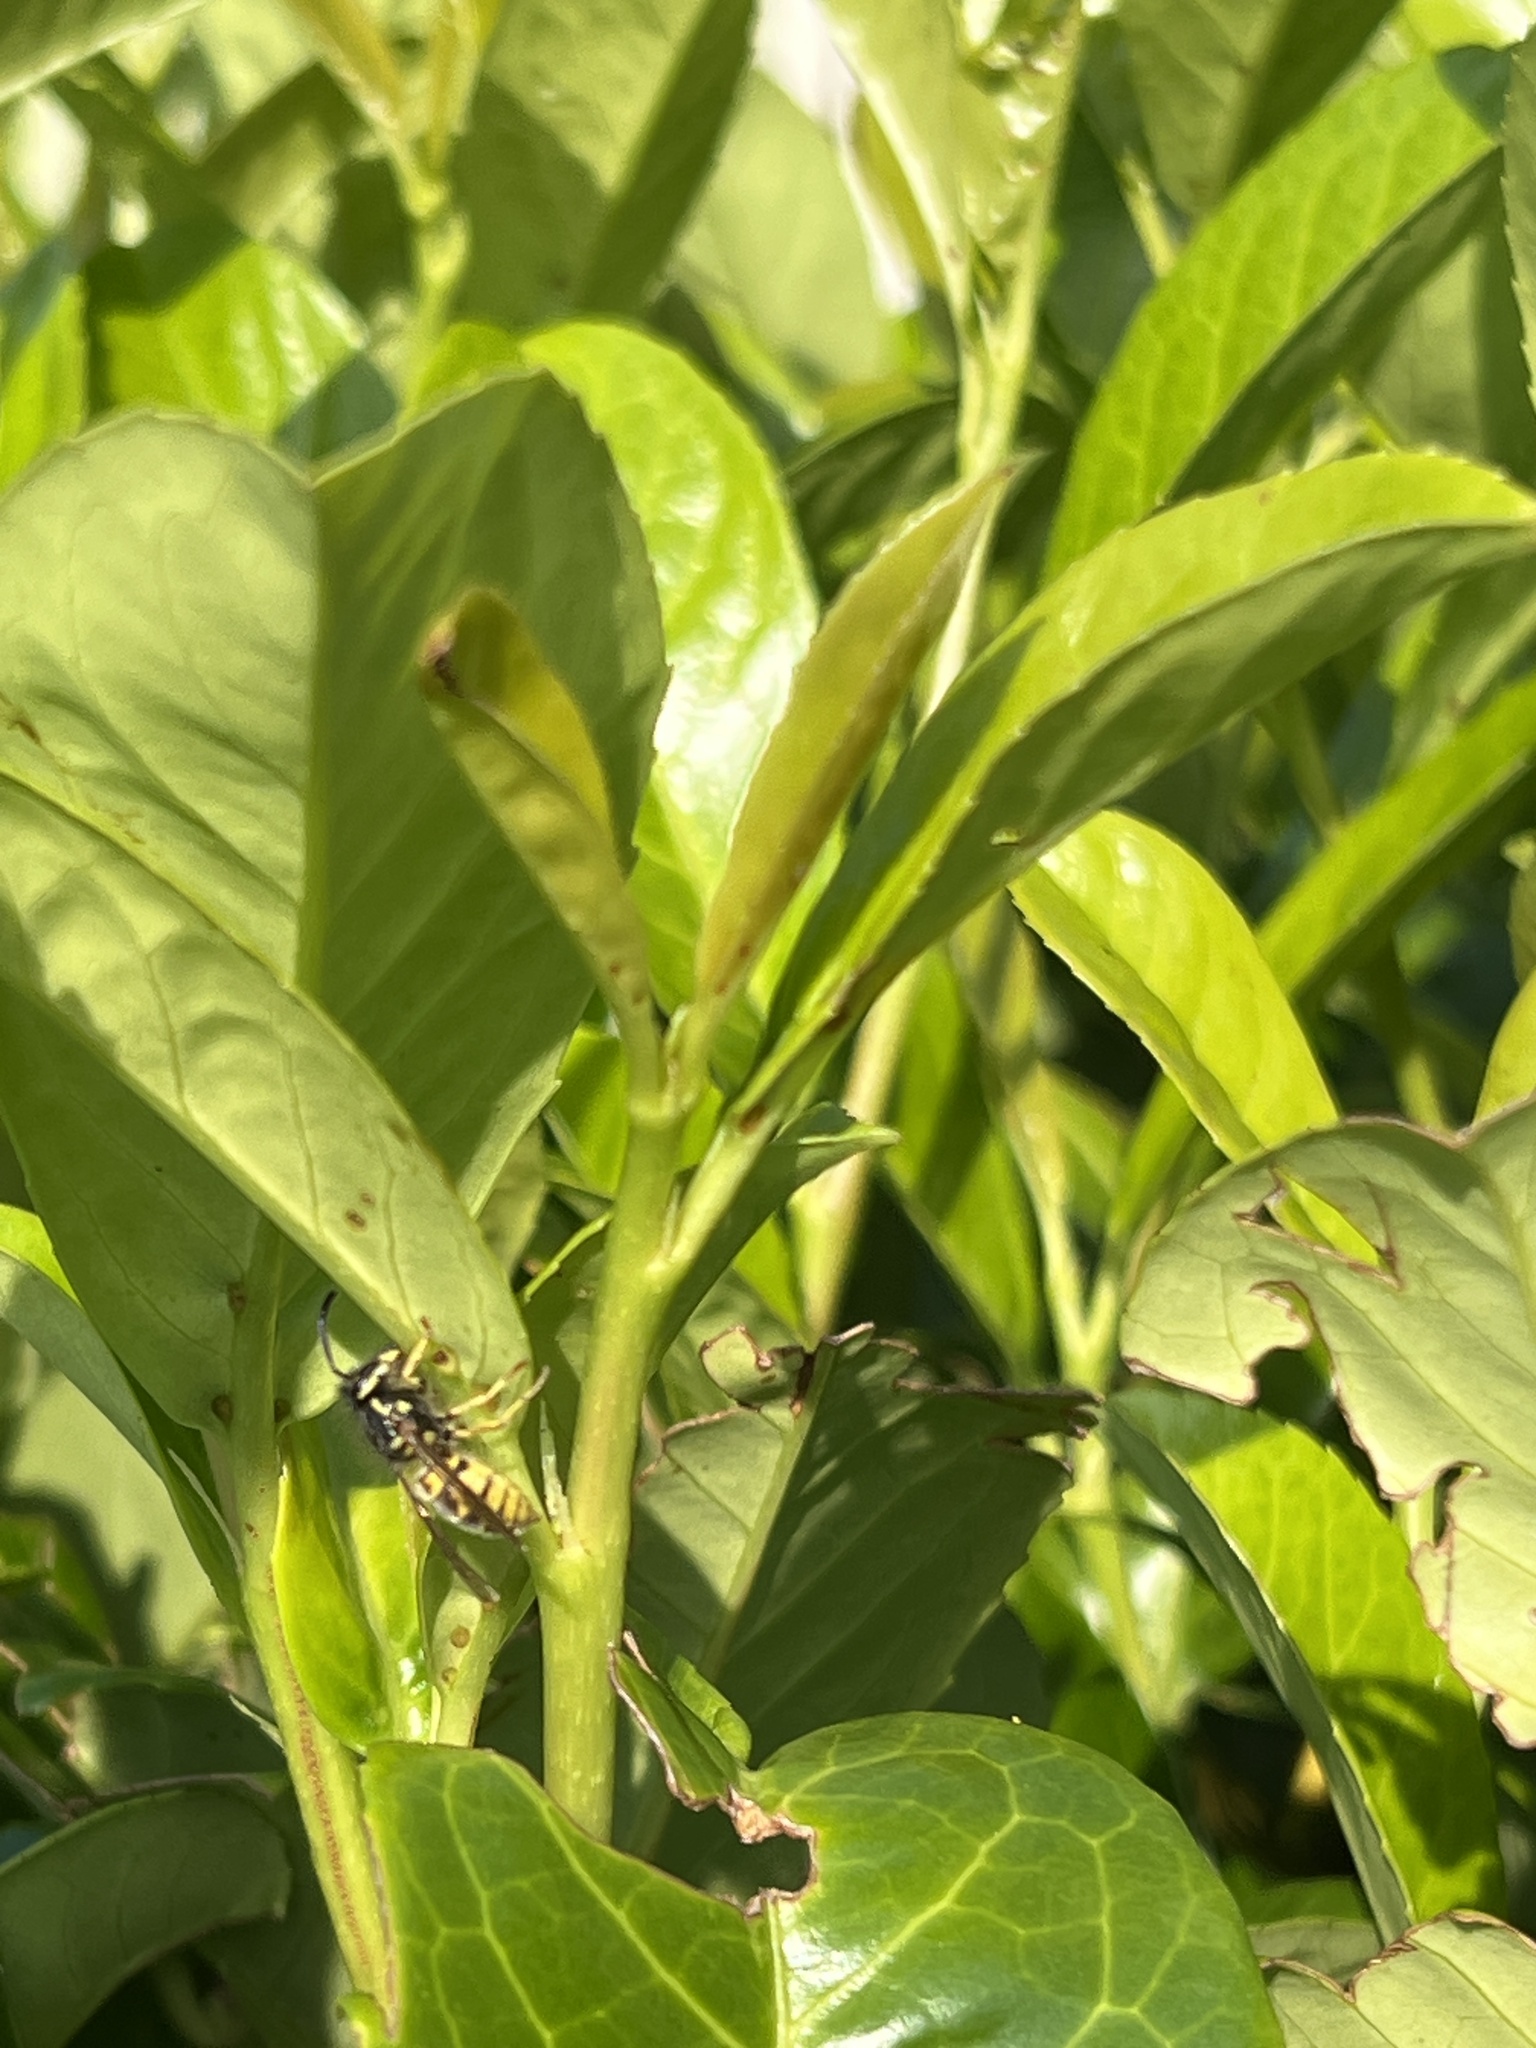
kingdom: Animalia
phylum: Arthropoda
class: Insecta
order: Hymenoptera
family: Vespidae
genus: Vespula
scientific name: Vespula germanica
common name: German wasp
